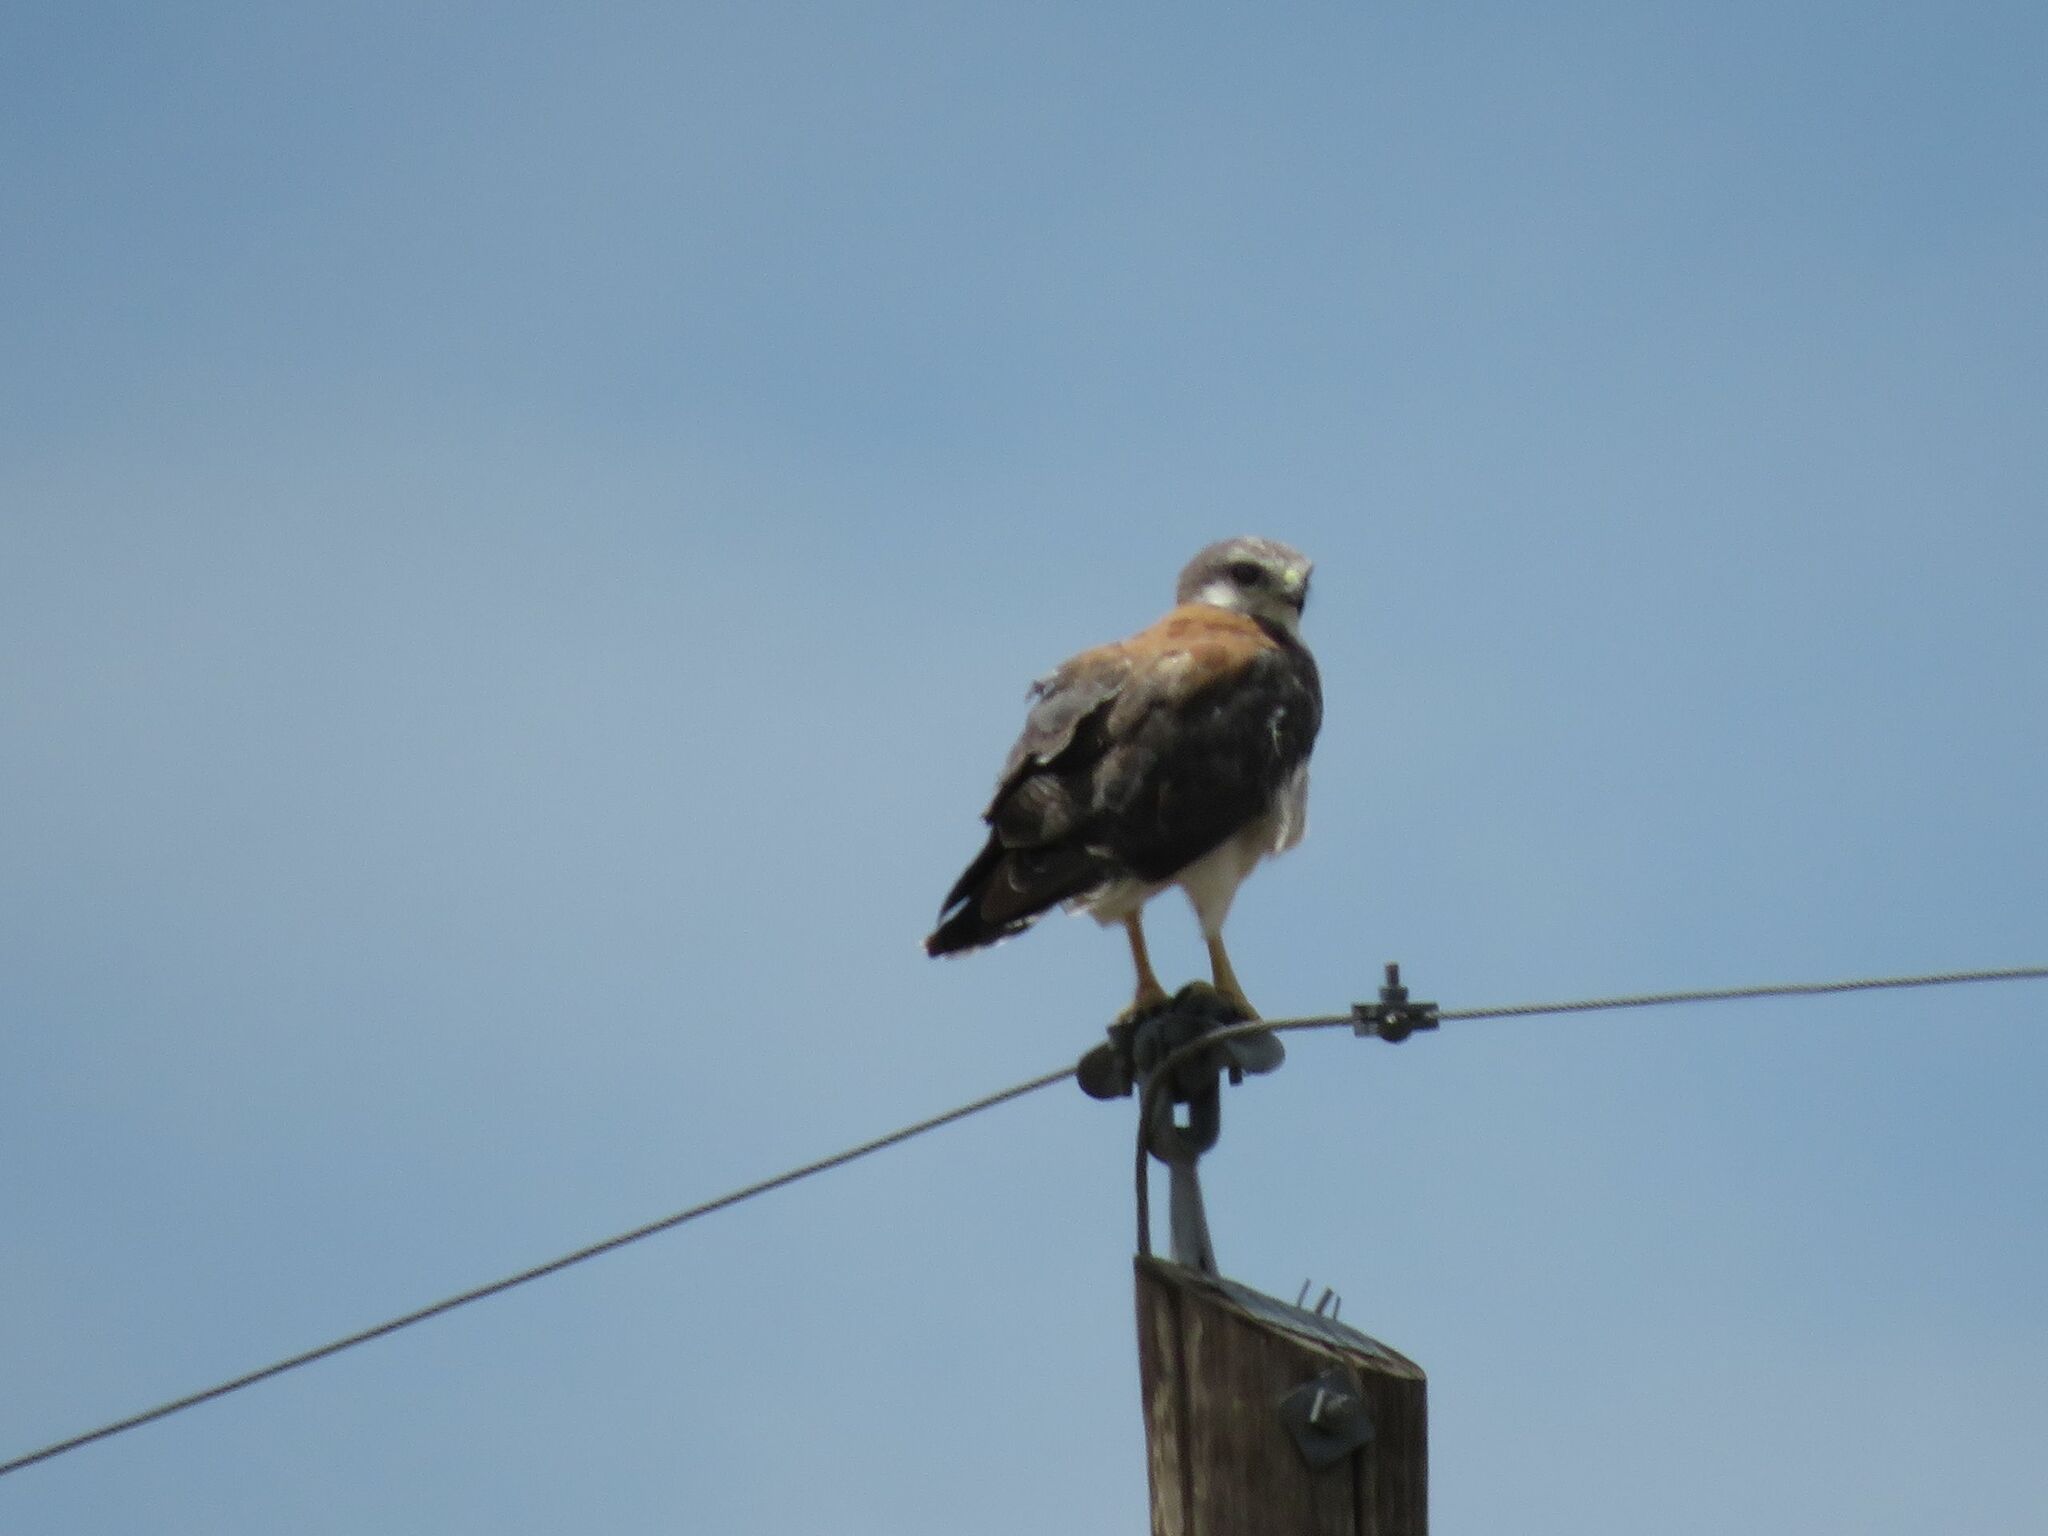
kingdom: Animalia
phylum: Chordata
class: Aves
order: Accipitriformes
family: Accipitridae
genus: Buteo
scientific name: Buteo polyosoma
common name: Variable hawk
